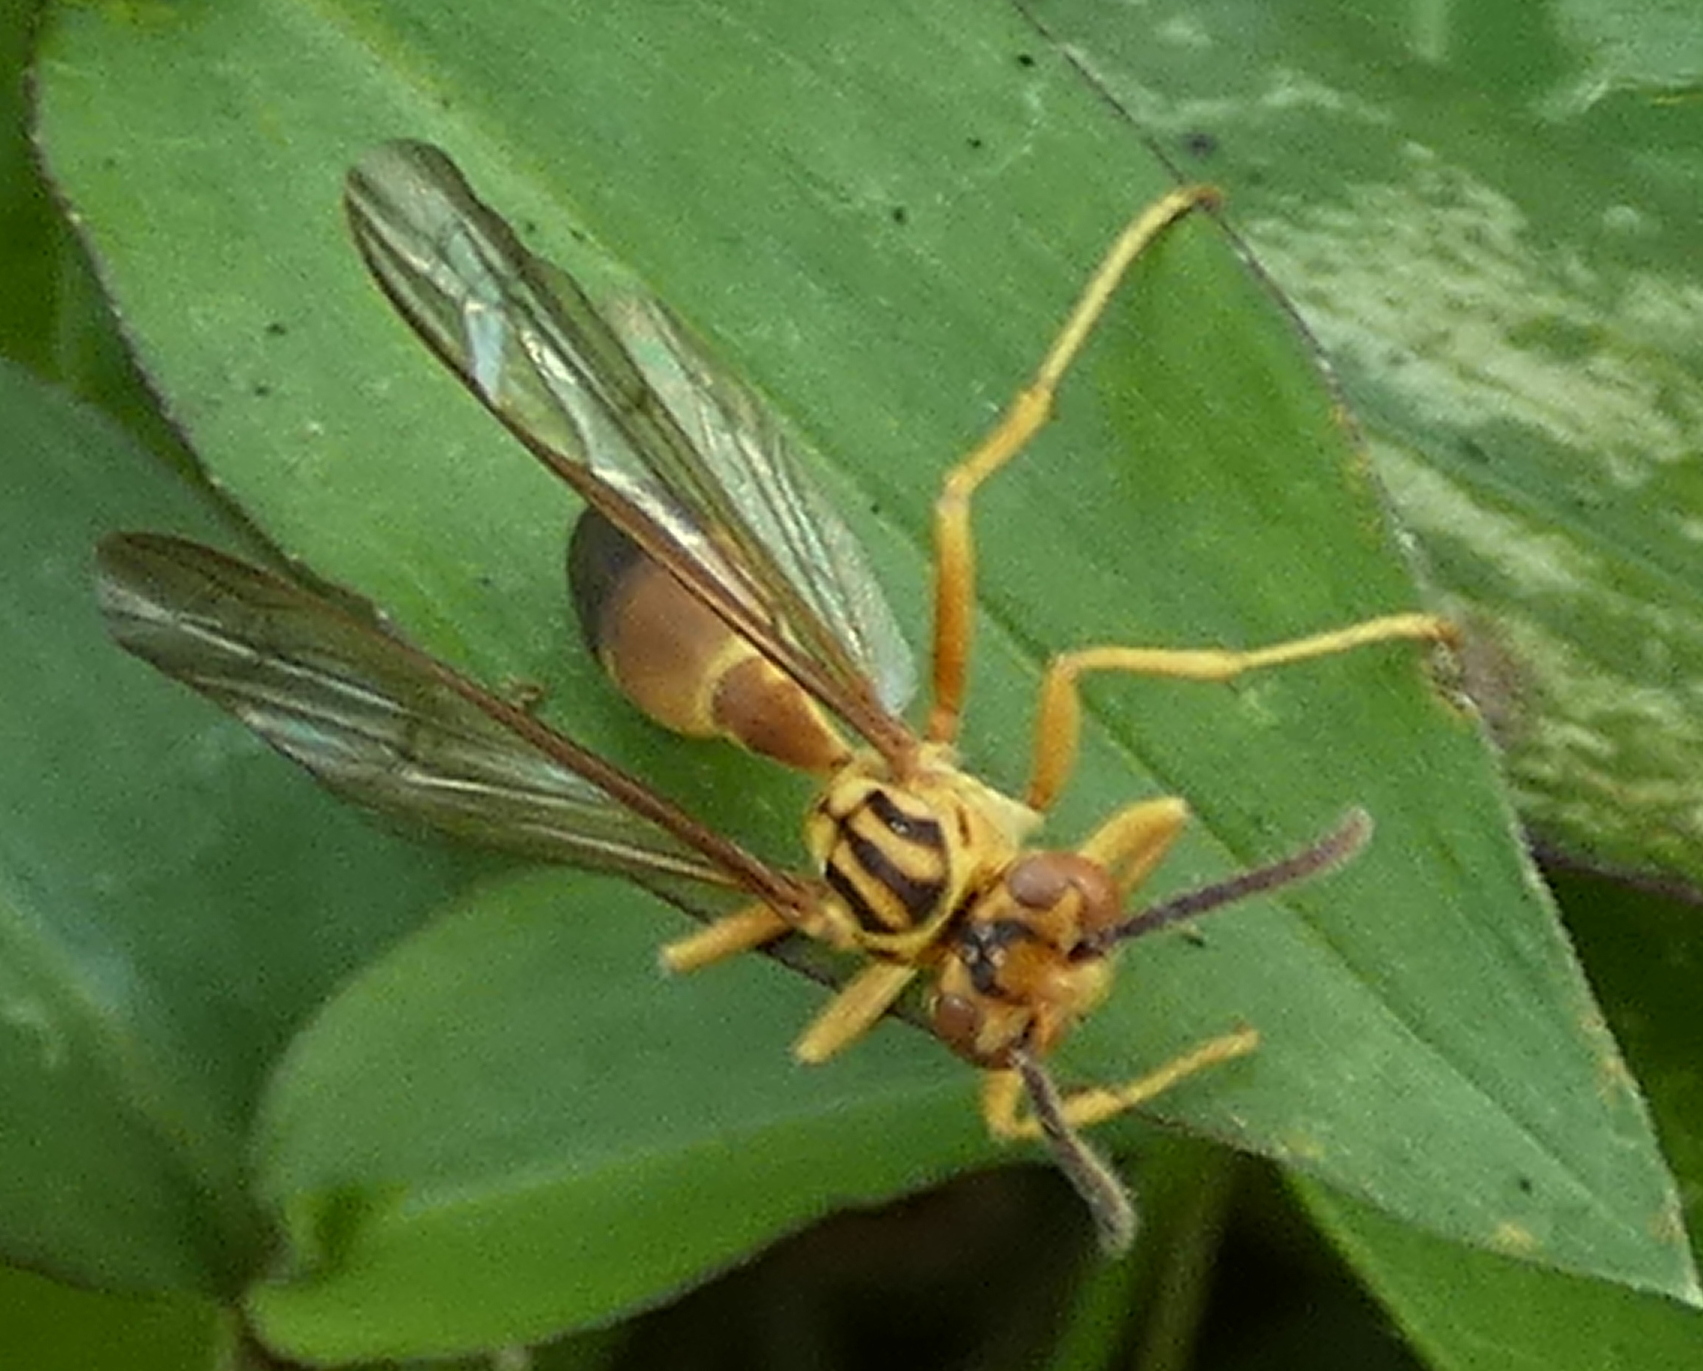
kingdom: Animalia
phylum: Arthropoda
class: Insecta
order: Hymenoptera
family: Vespidae
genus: Agelaia
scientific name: Agelaia pallipes
